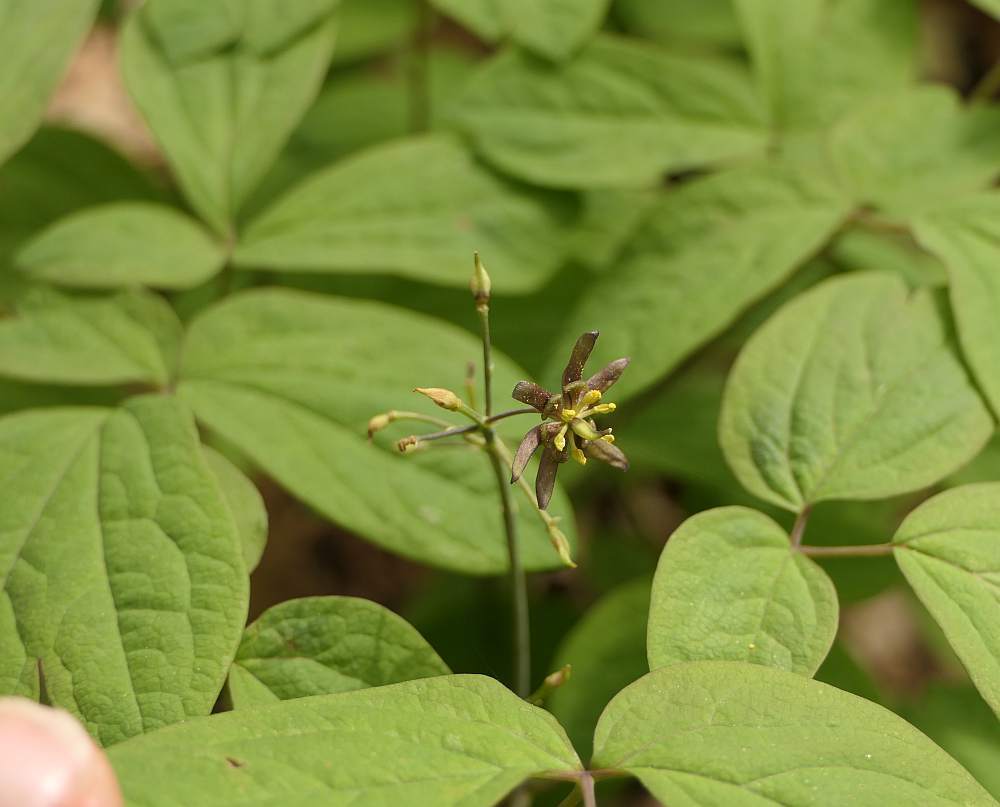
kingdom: Plantae
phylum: Tracheophyta
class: Magnoliopsida
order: Ranunculales
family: Berberidaceae
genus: Caulophyllum
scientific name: Caulophyllum giganteum
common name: Blue cohosh
